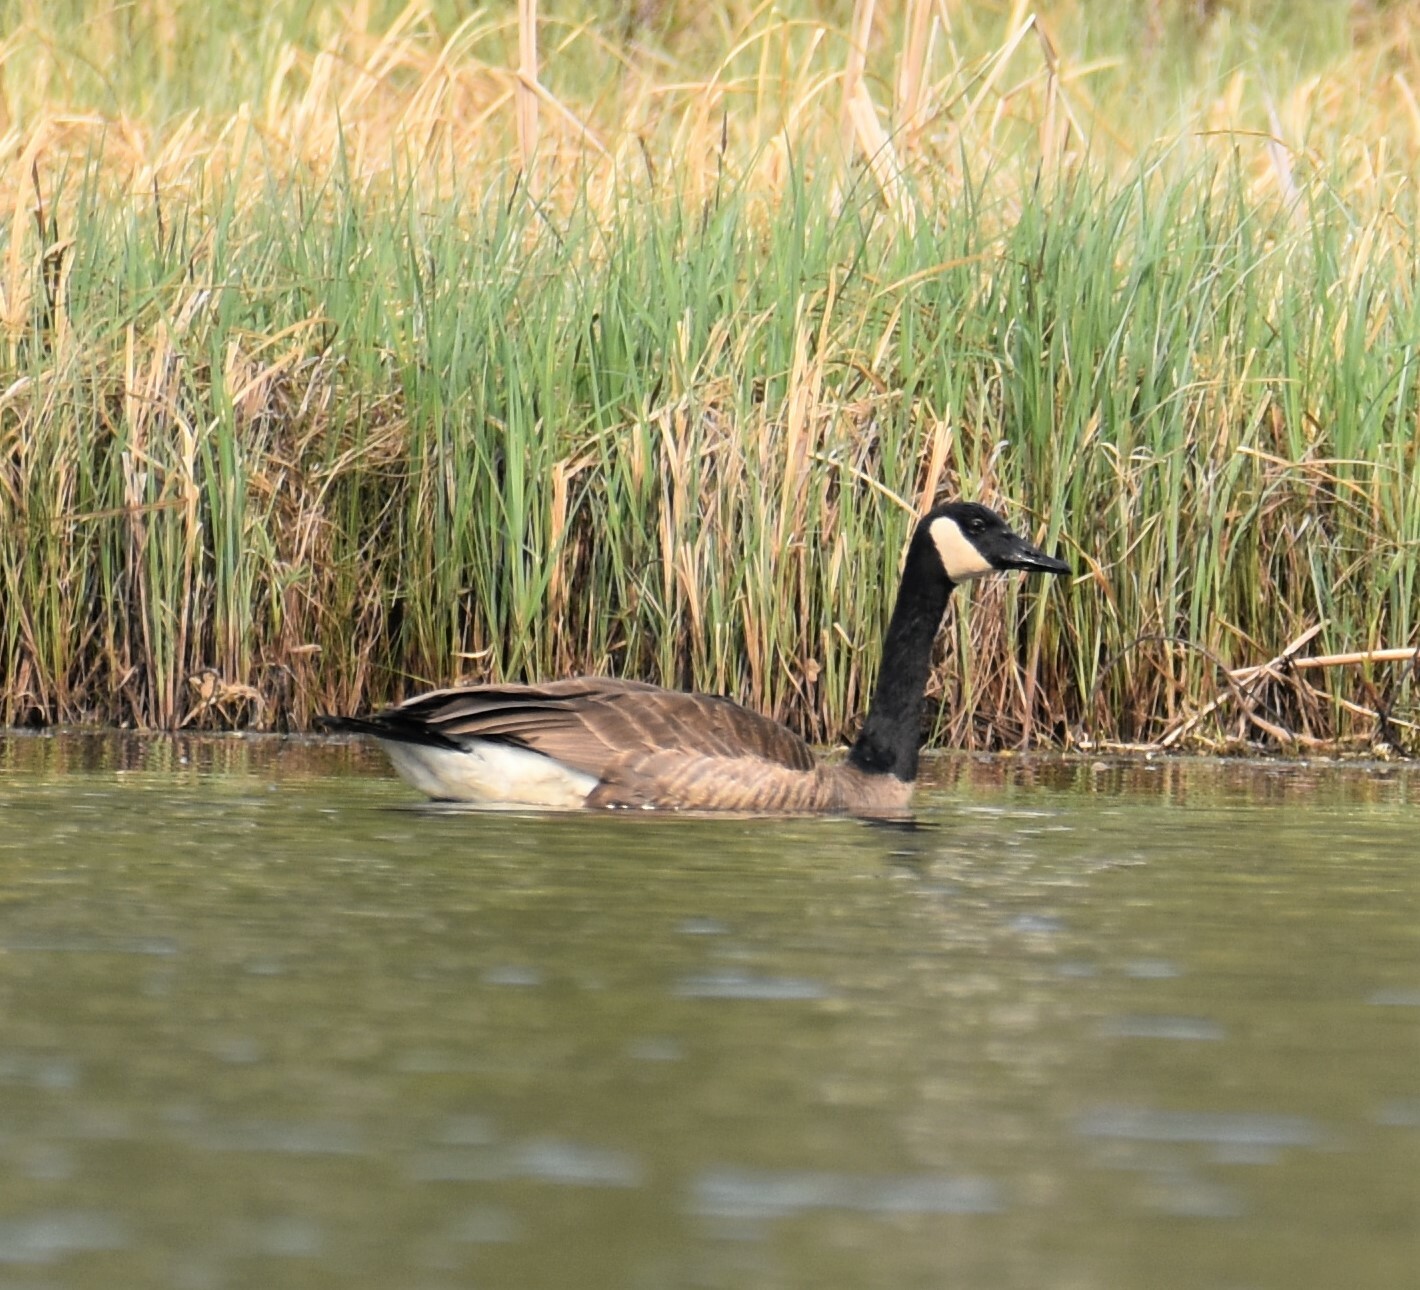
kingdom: Animalia
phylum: Chordata
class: Aves
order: Anseriformes
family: Anatidae
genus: Branta
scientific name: Branta canadensis
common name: Canada goose
